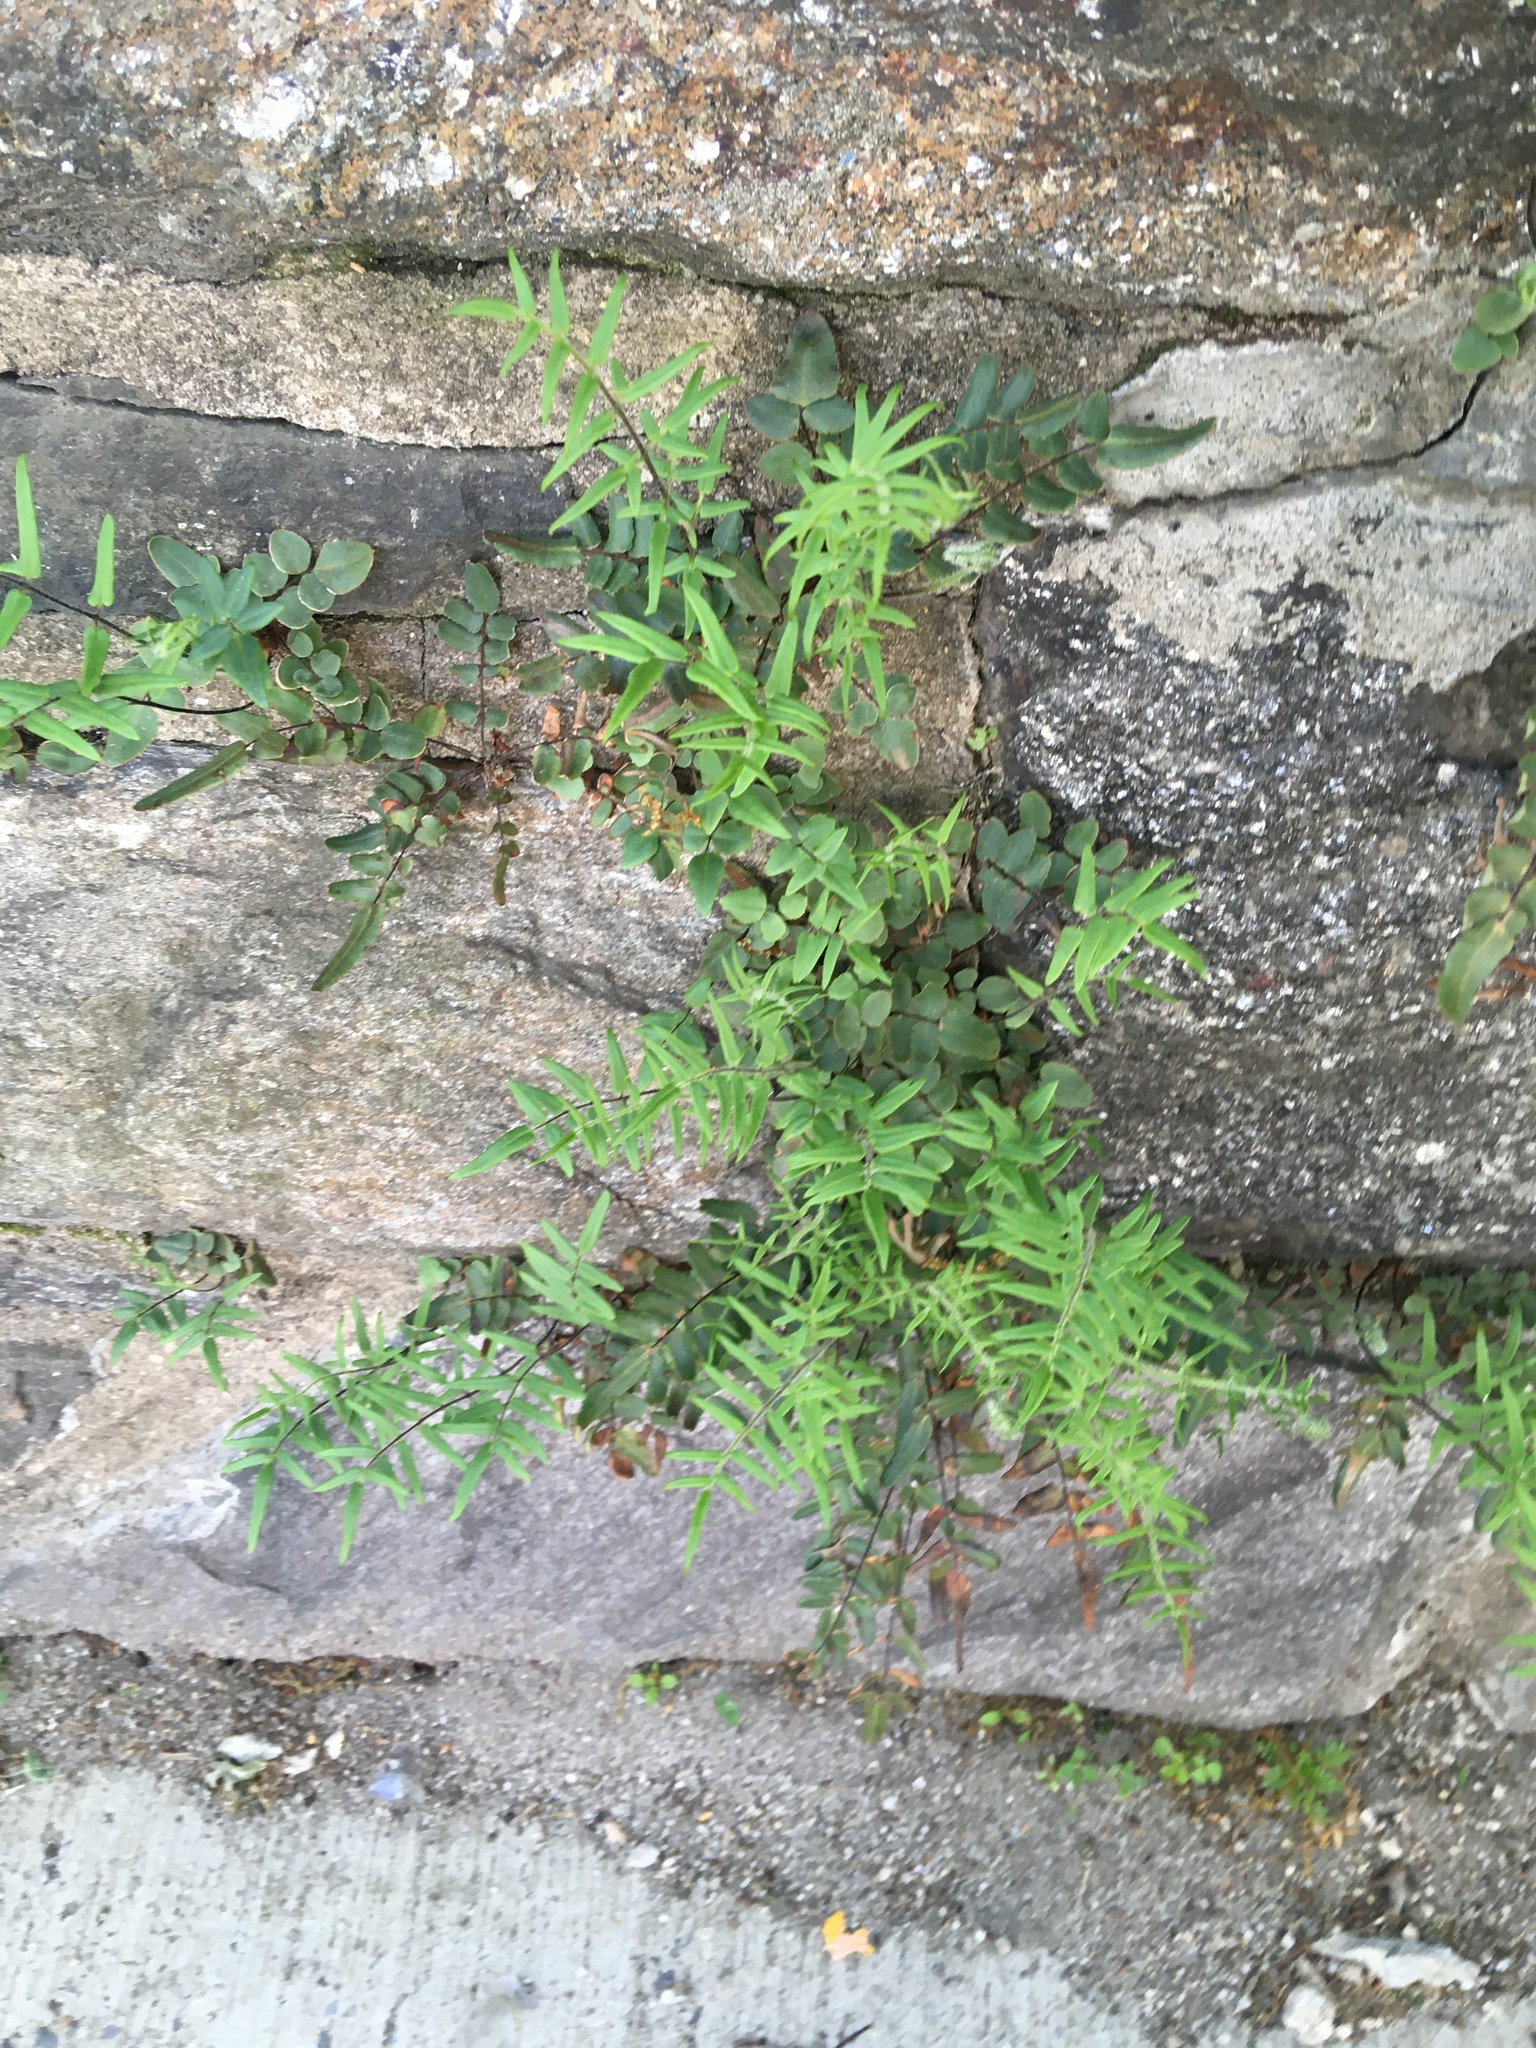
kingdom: Plantae
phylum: Tracheophyta
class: Polypodiopsida
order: Polypodiales
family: Pteridaceae
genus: Pellaea
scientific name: Pellaea atropurpurea
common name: Hairy cliffbrake
